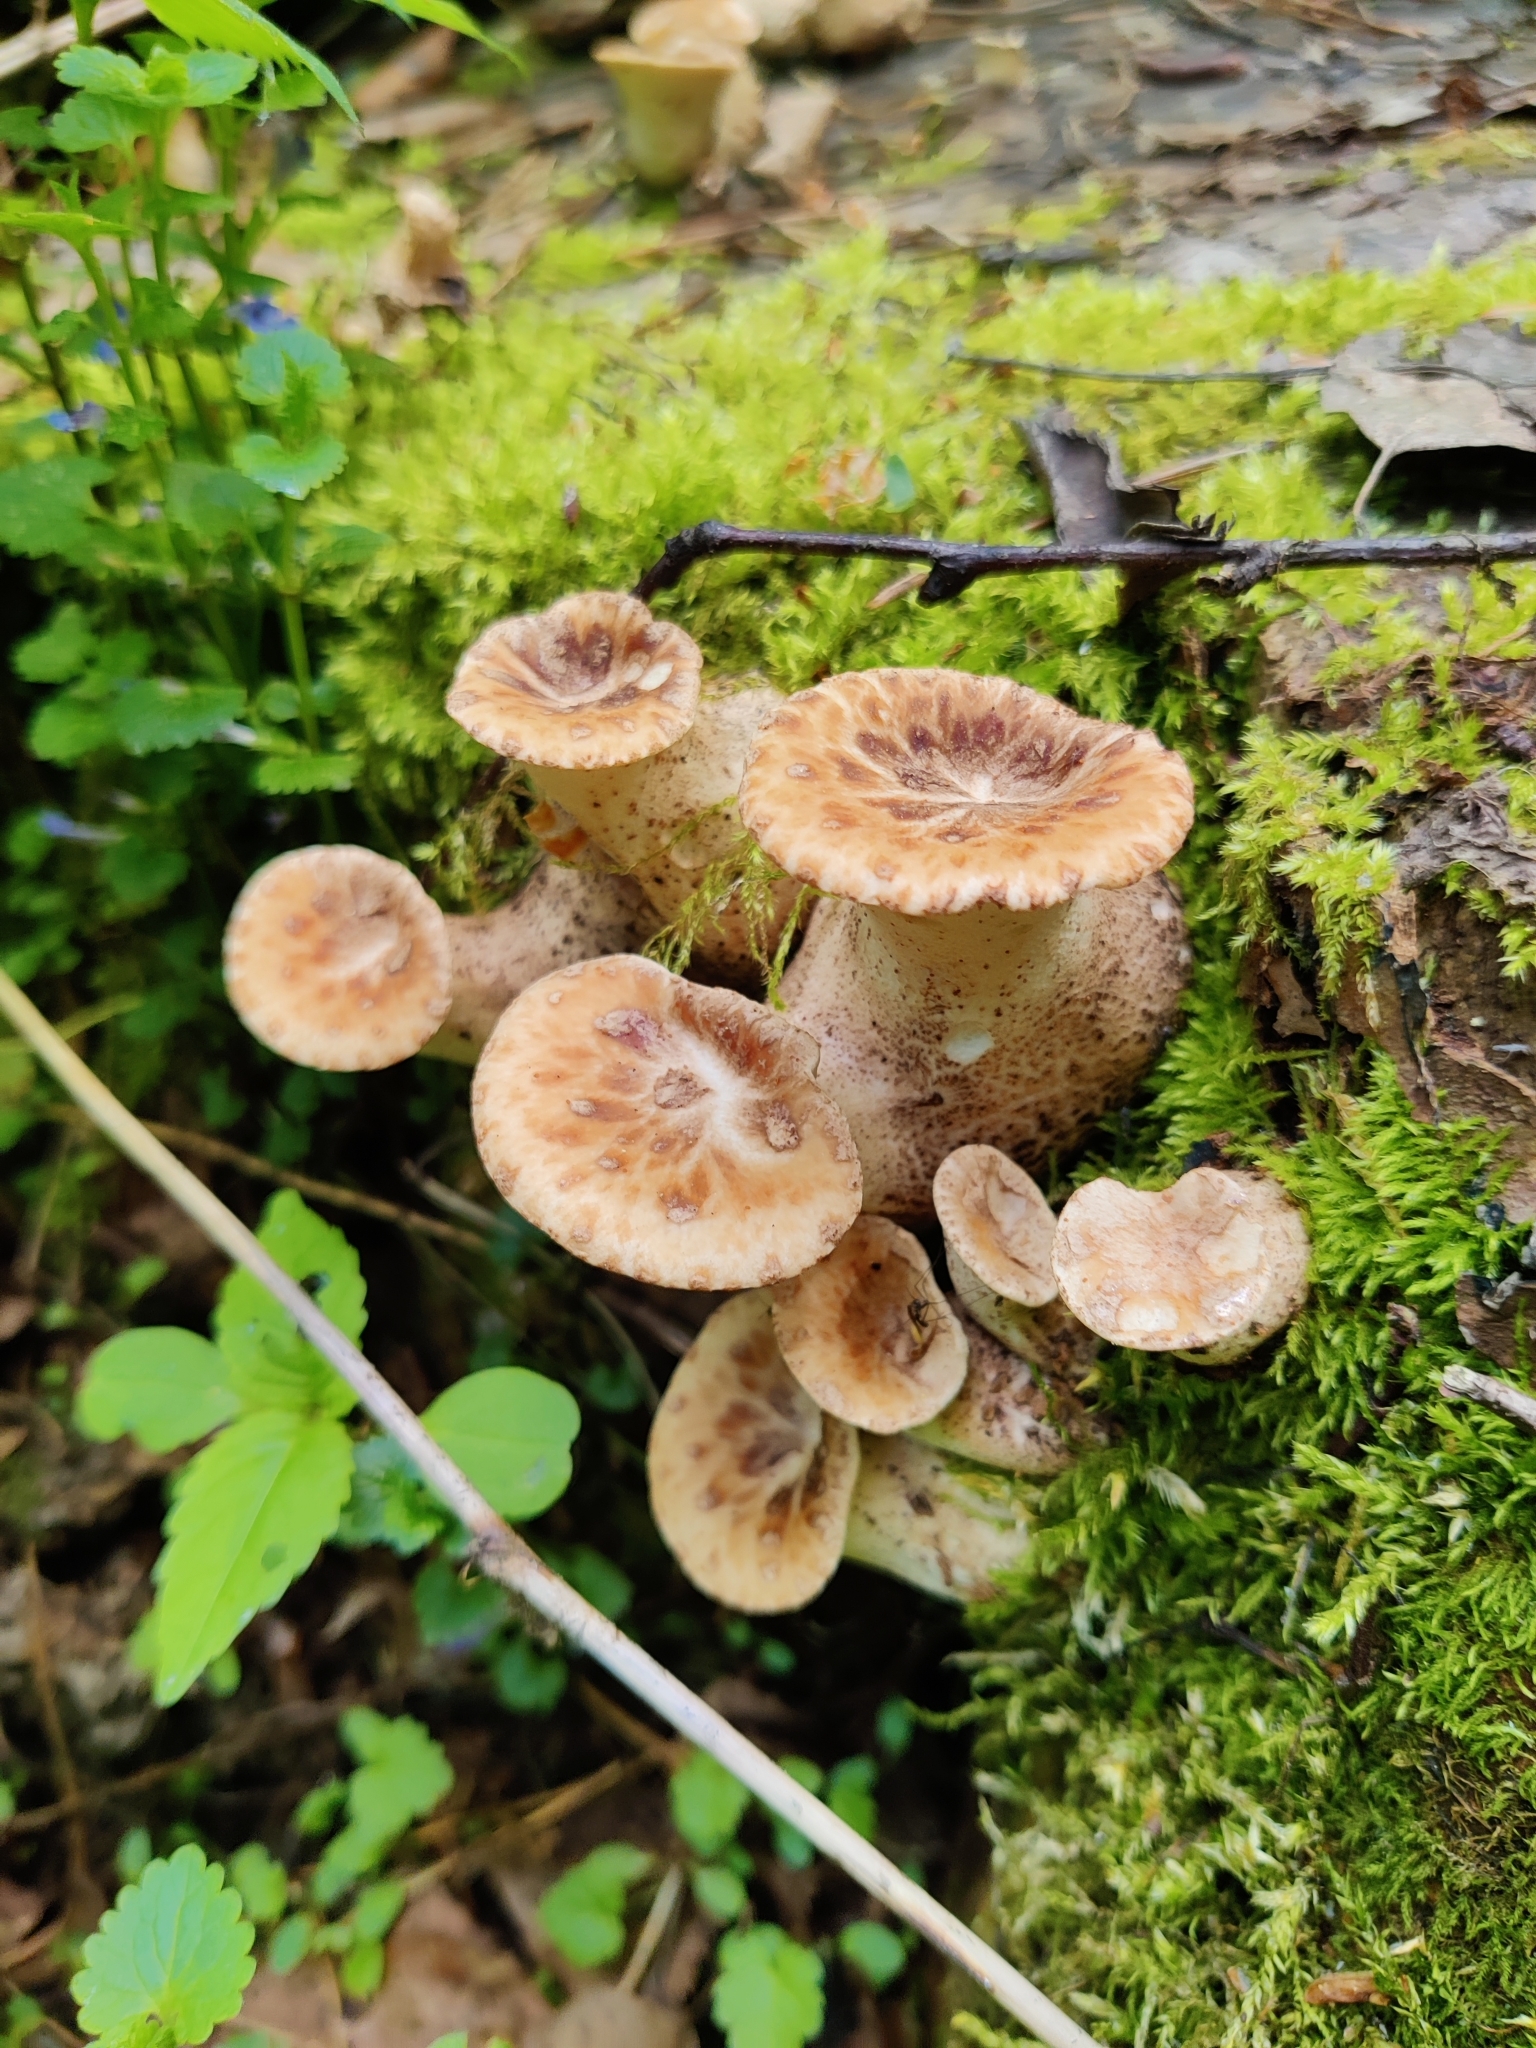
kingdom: Fungi
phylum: Basidiomycota
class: Agaricomycetes
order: Polyporales
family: Polyporaceae
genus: Cerioporus
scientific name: Cerioporus squamosus
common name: Dryad's saddle
